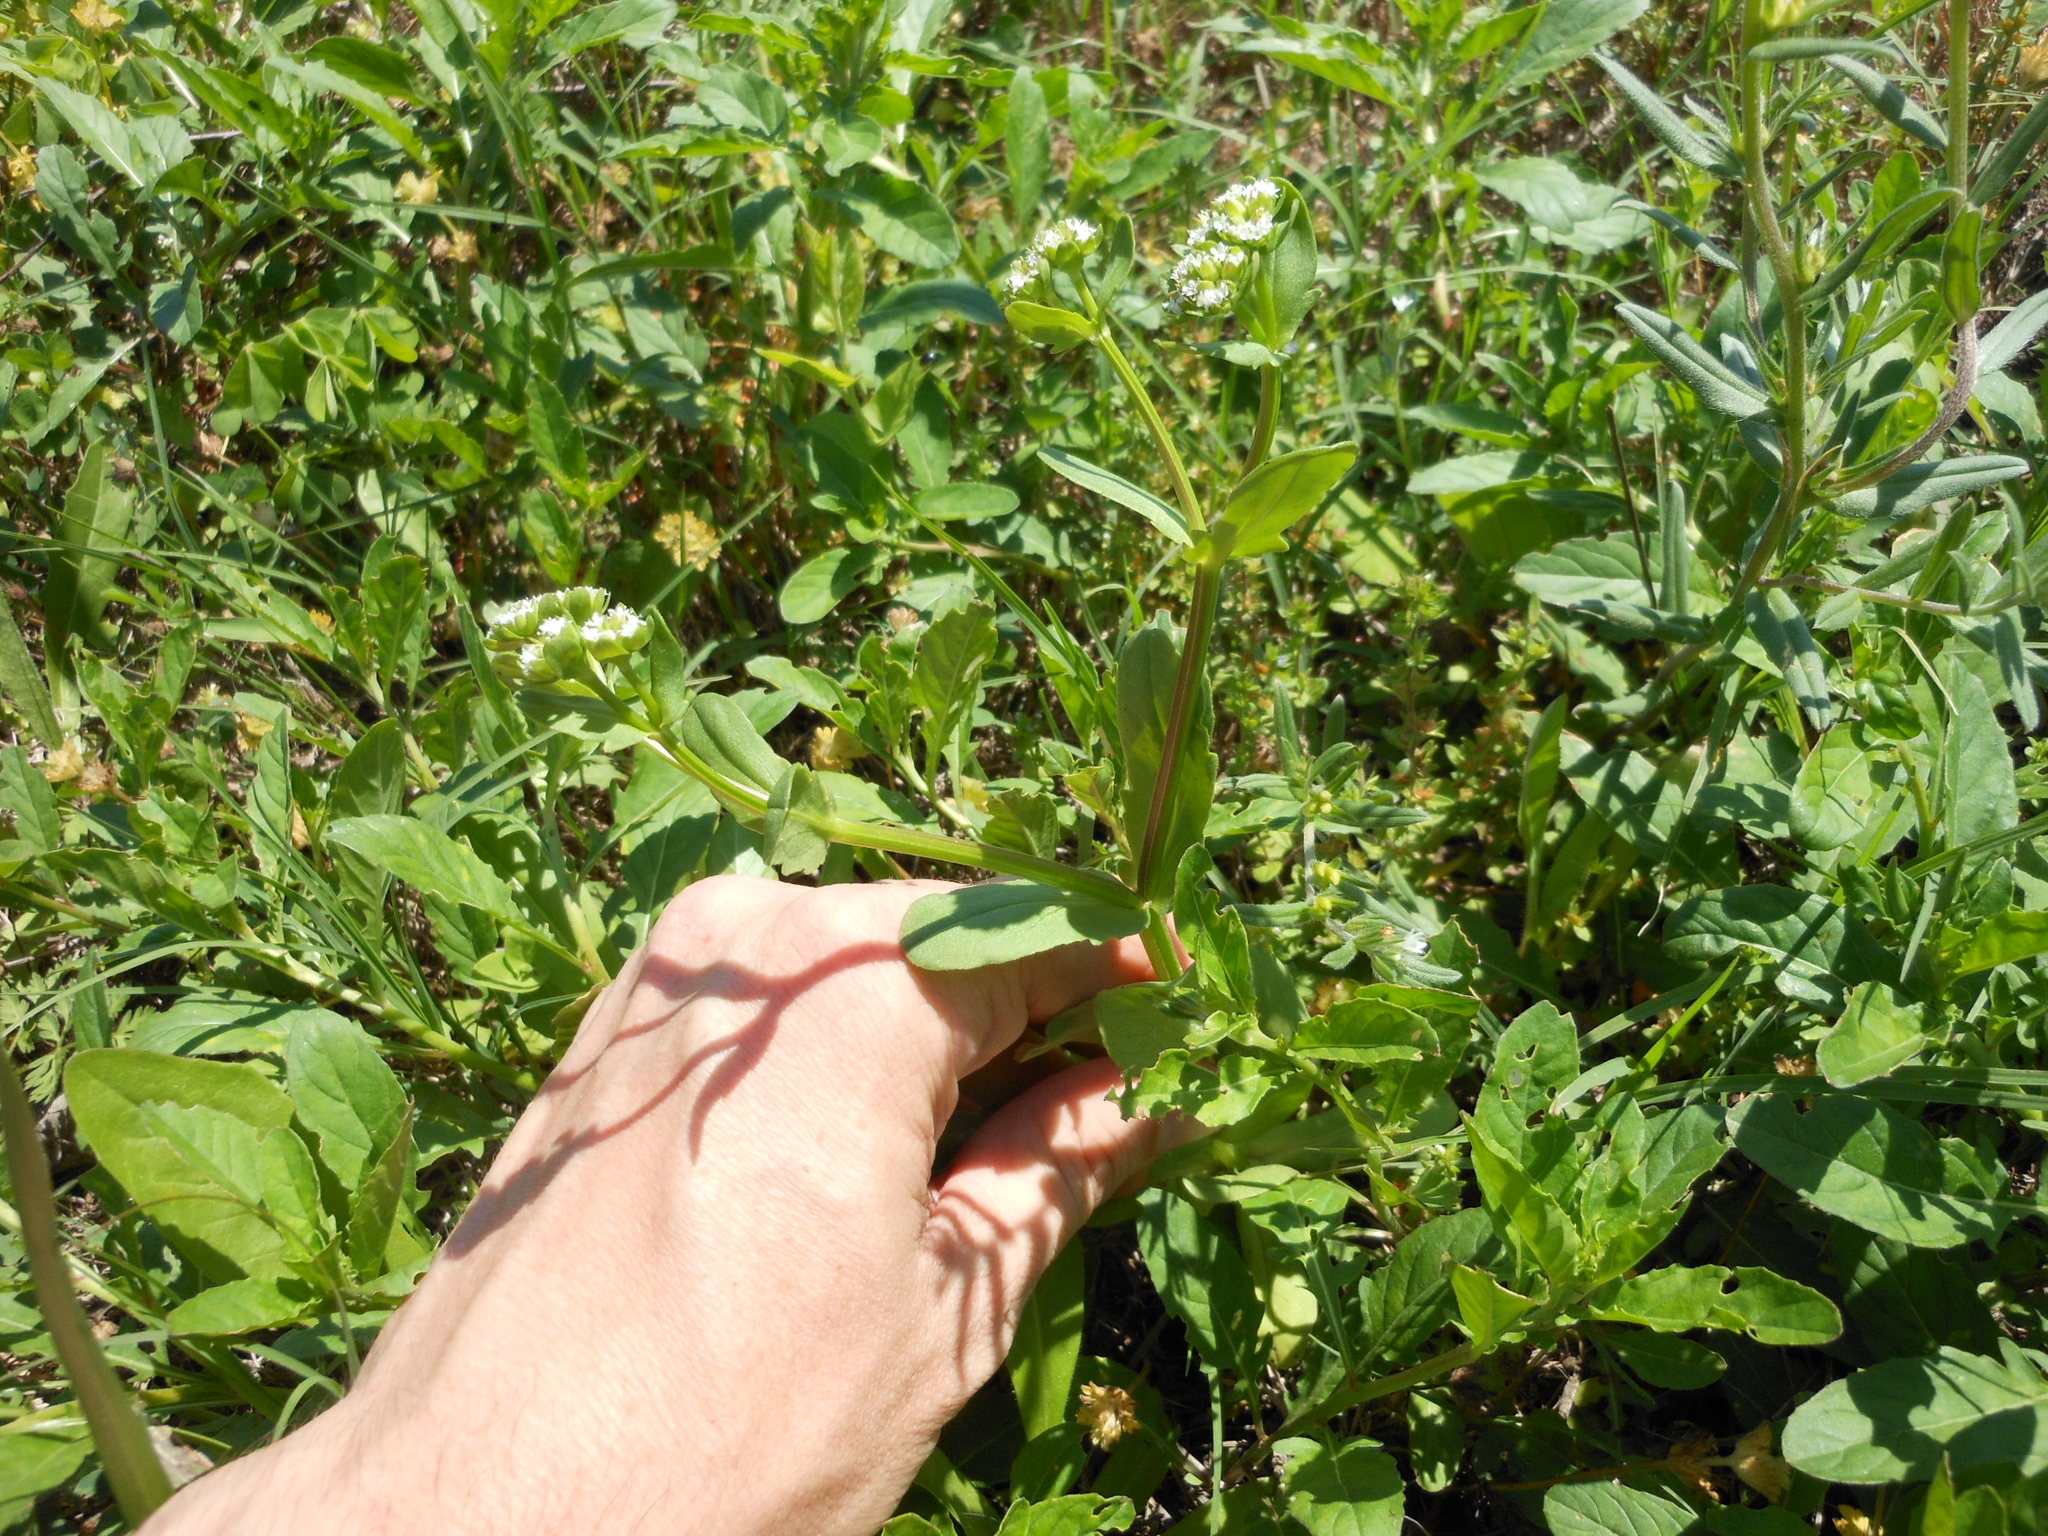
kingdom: Plantae
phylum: Tracheophyta
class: Magnoliopsida
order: Dipsacales
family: Caprifoliaceae
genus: Valerianella
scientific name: Valerianella radiata
